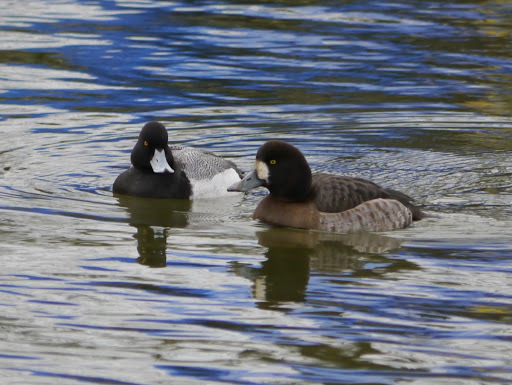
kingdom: Animalia
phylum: Chordata
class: Aves
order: Anseriformes
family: Anatidae
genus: Aythya
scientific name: Aythya affinis
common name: Lesser scaup
